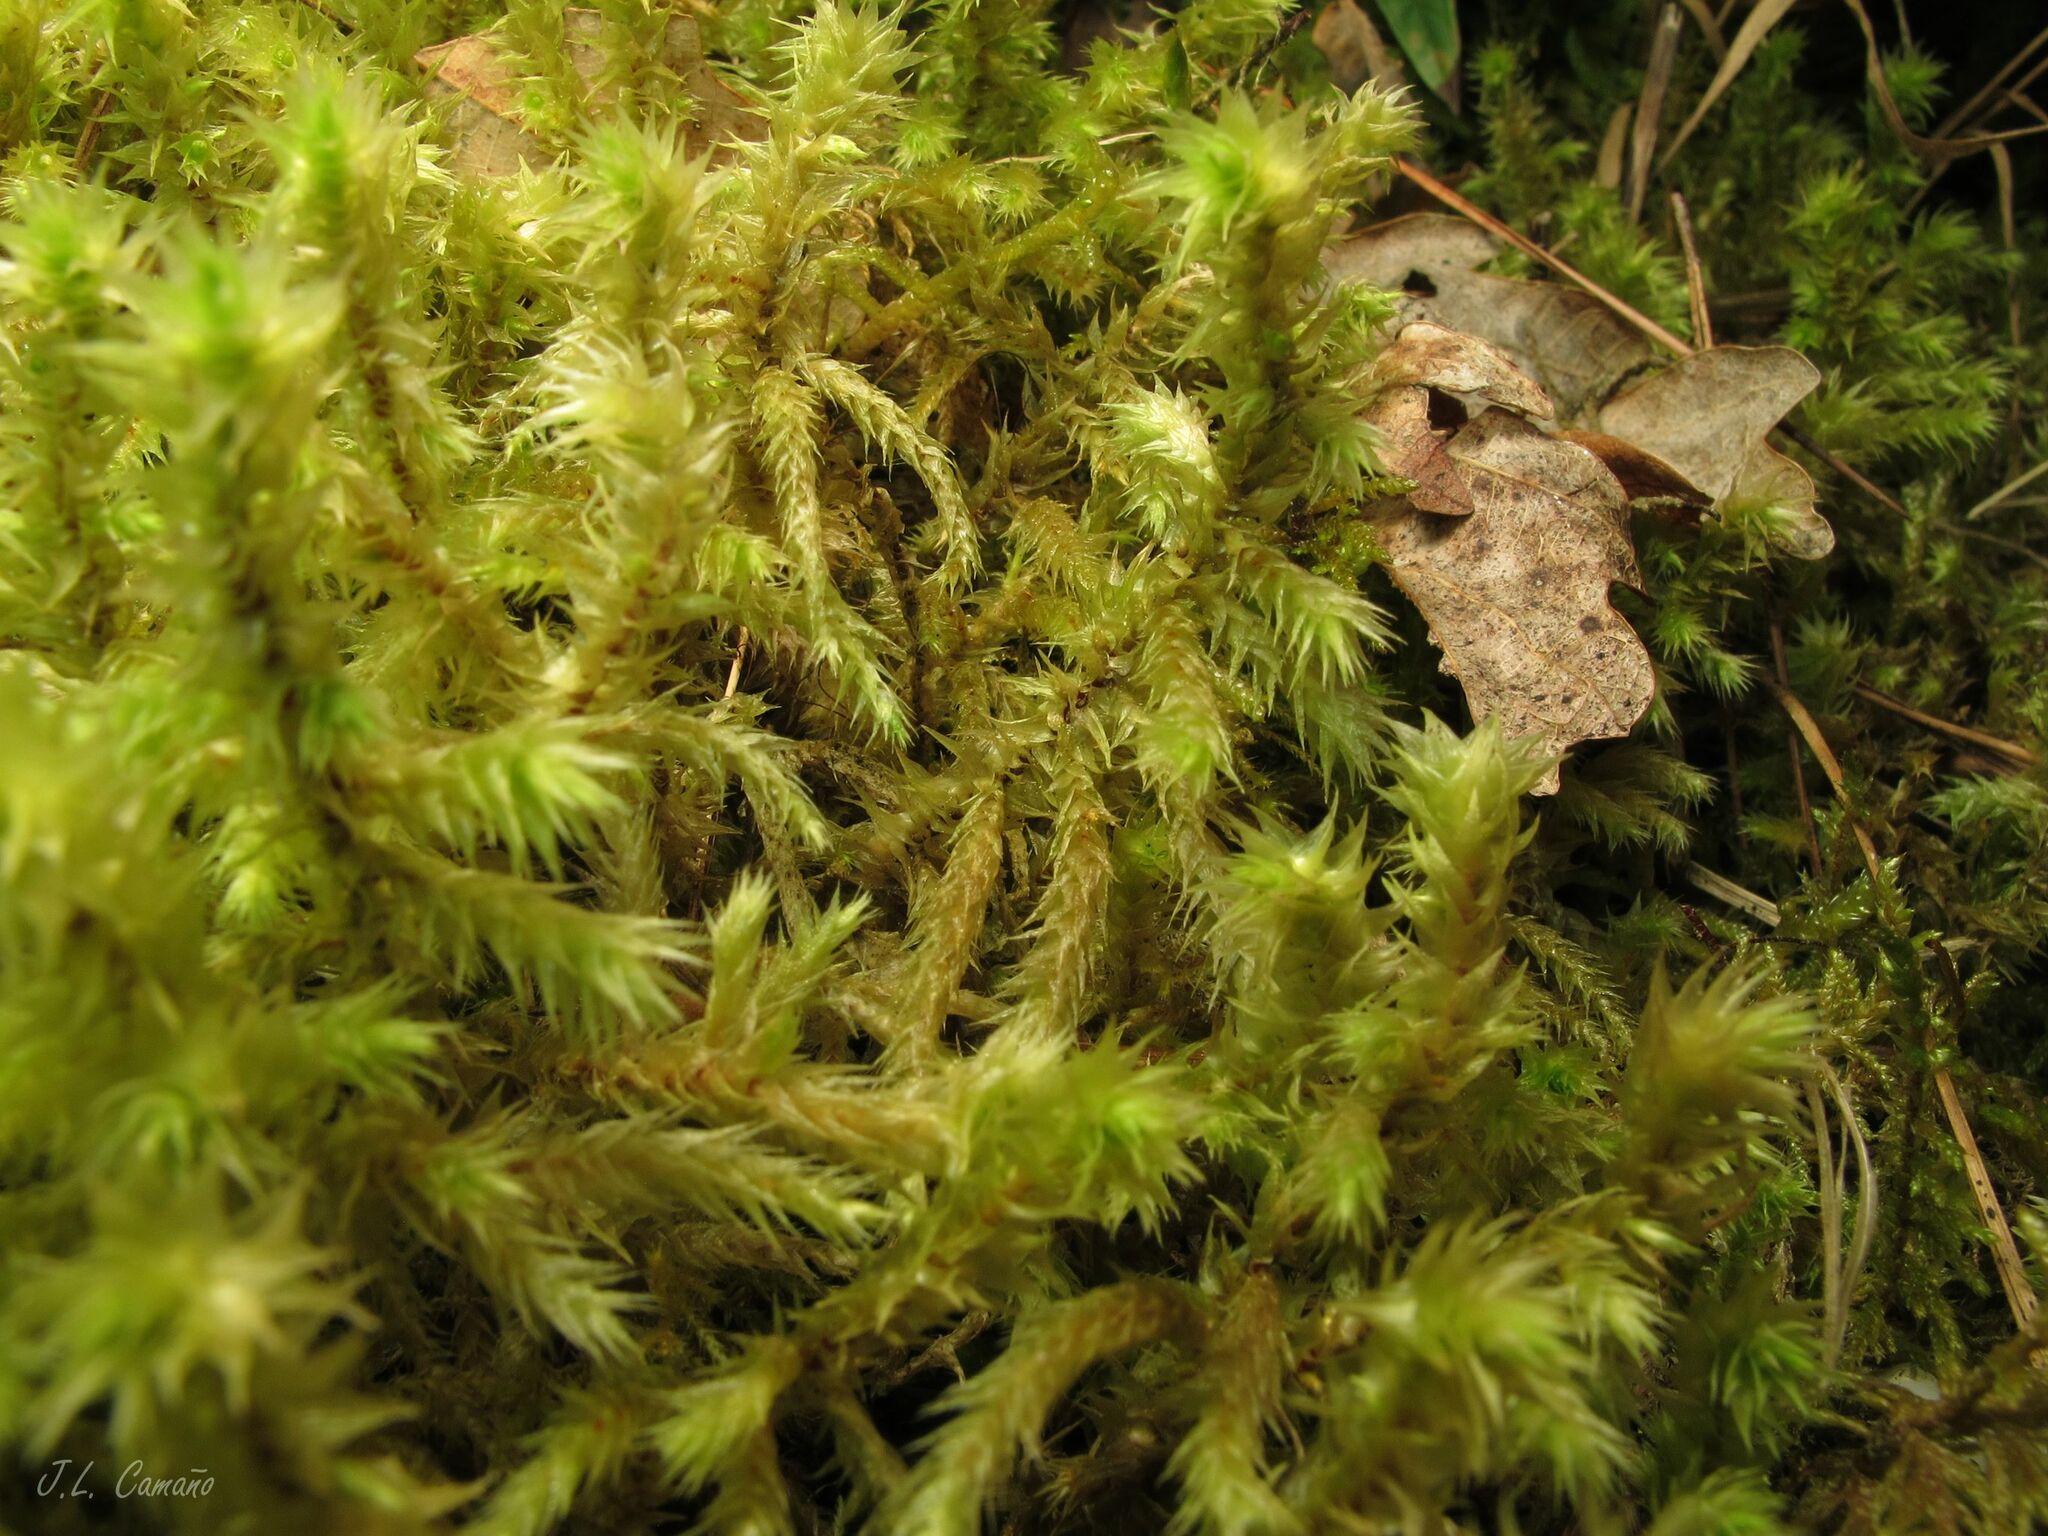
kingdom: Plantae
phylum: Bryophyta
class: Bryopsida
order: Hypnales
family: Hylocomiaceae
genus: Hylocomiadelphus
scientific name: Hylocomiadelphus triquetrus
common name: Rough goose neck moss
